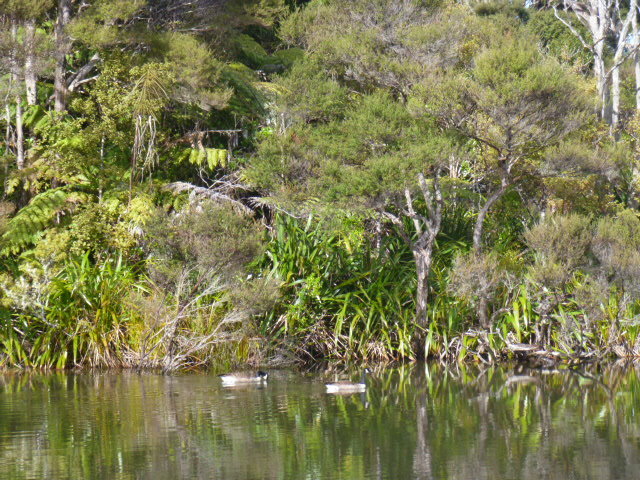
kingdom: Animalia
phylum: Chordata
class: Aves
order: Anseriformes
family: Anatidae
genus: Branta
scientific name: Branta canadensis
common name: Canada goose
